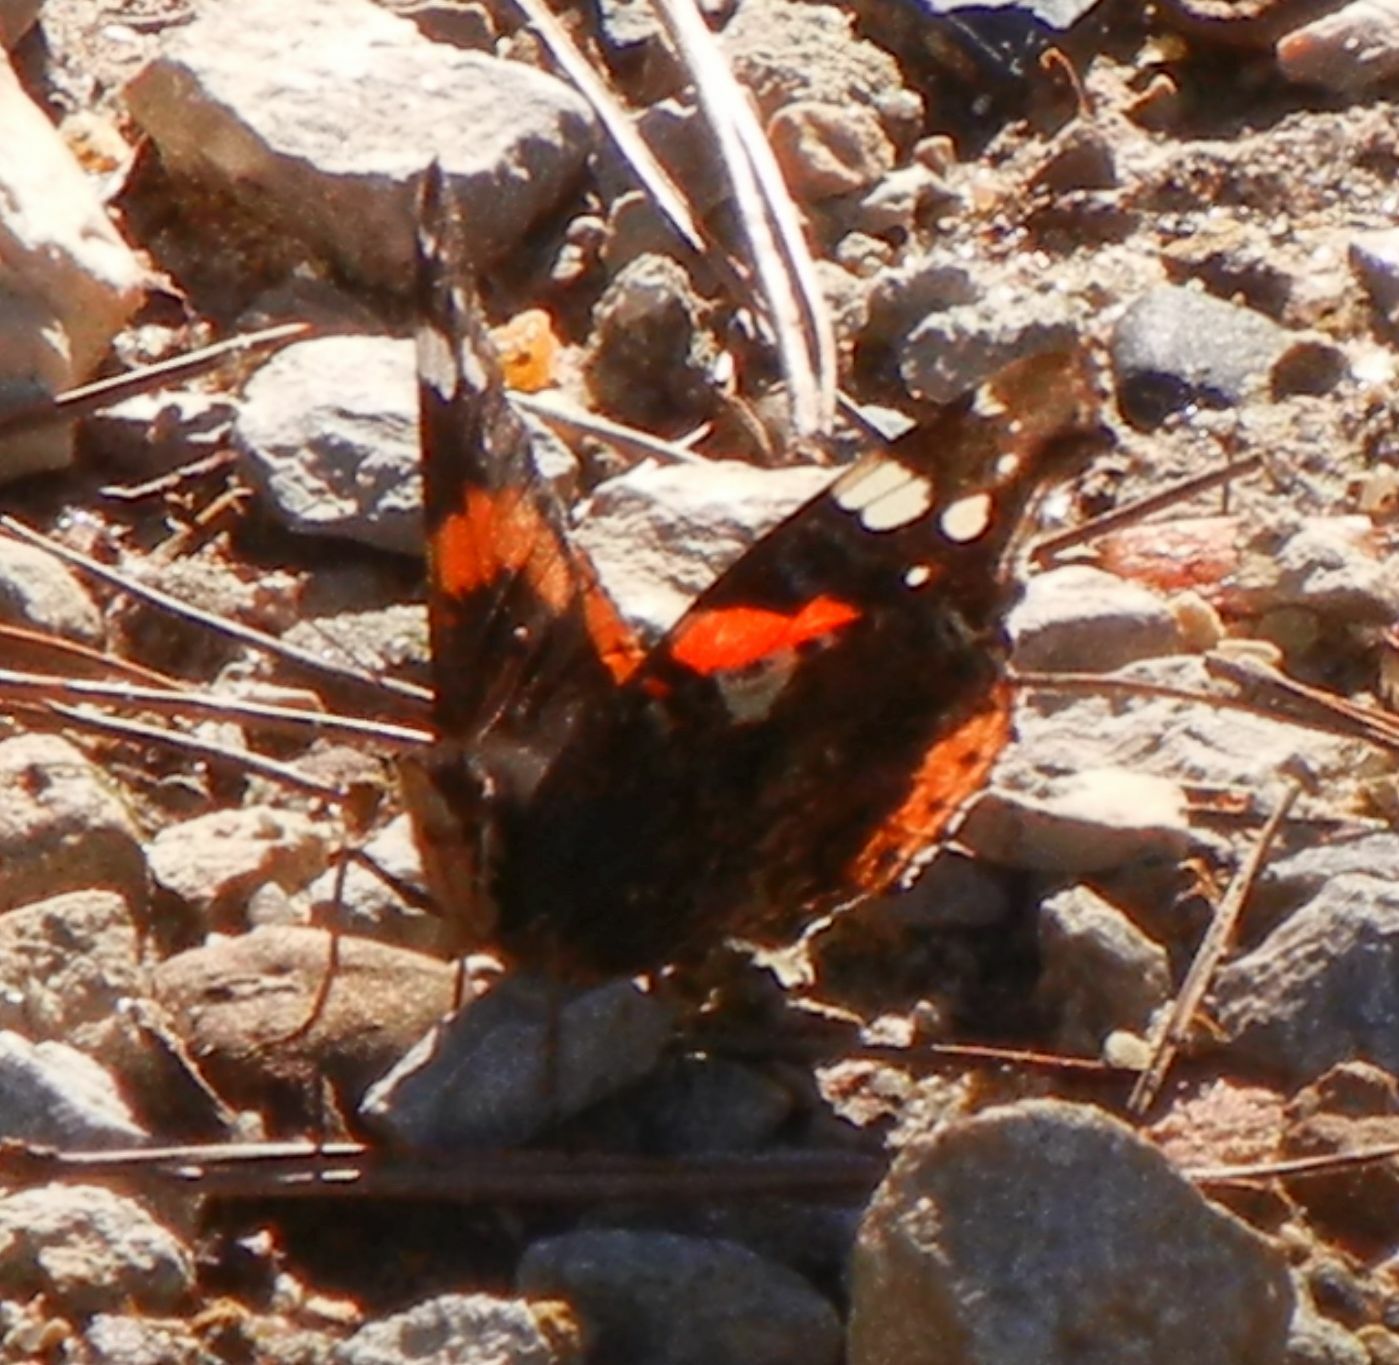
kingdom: Animalia
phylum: Arthropoda
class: Insecta
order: Lepidoptera
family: Nymphalidae
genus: Vanessa
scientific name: Vanessa atalanta
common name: Red admiral
